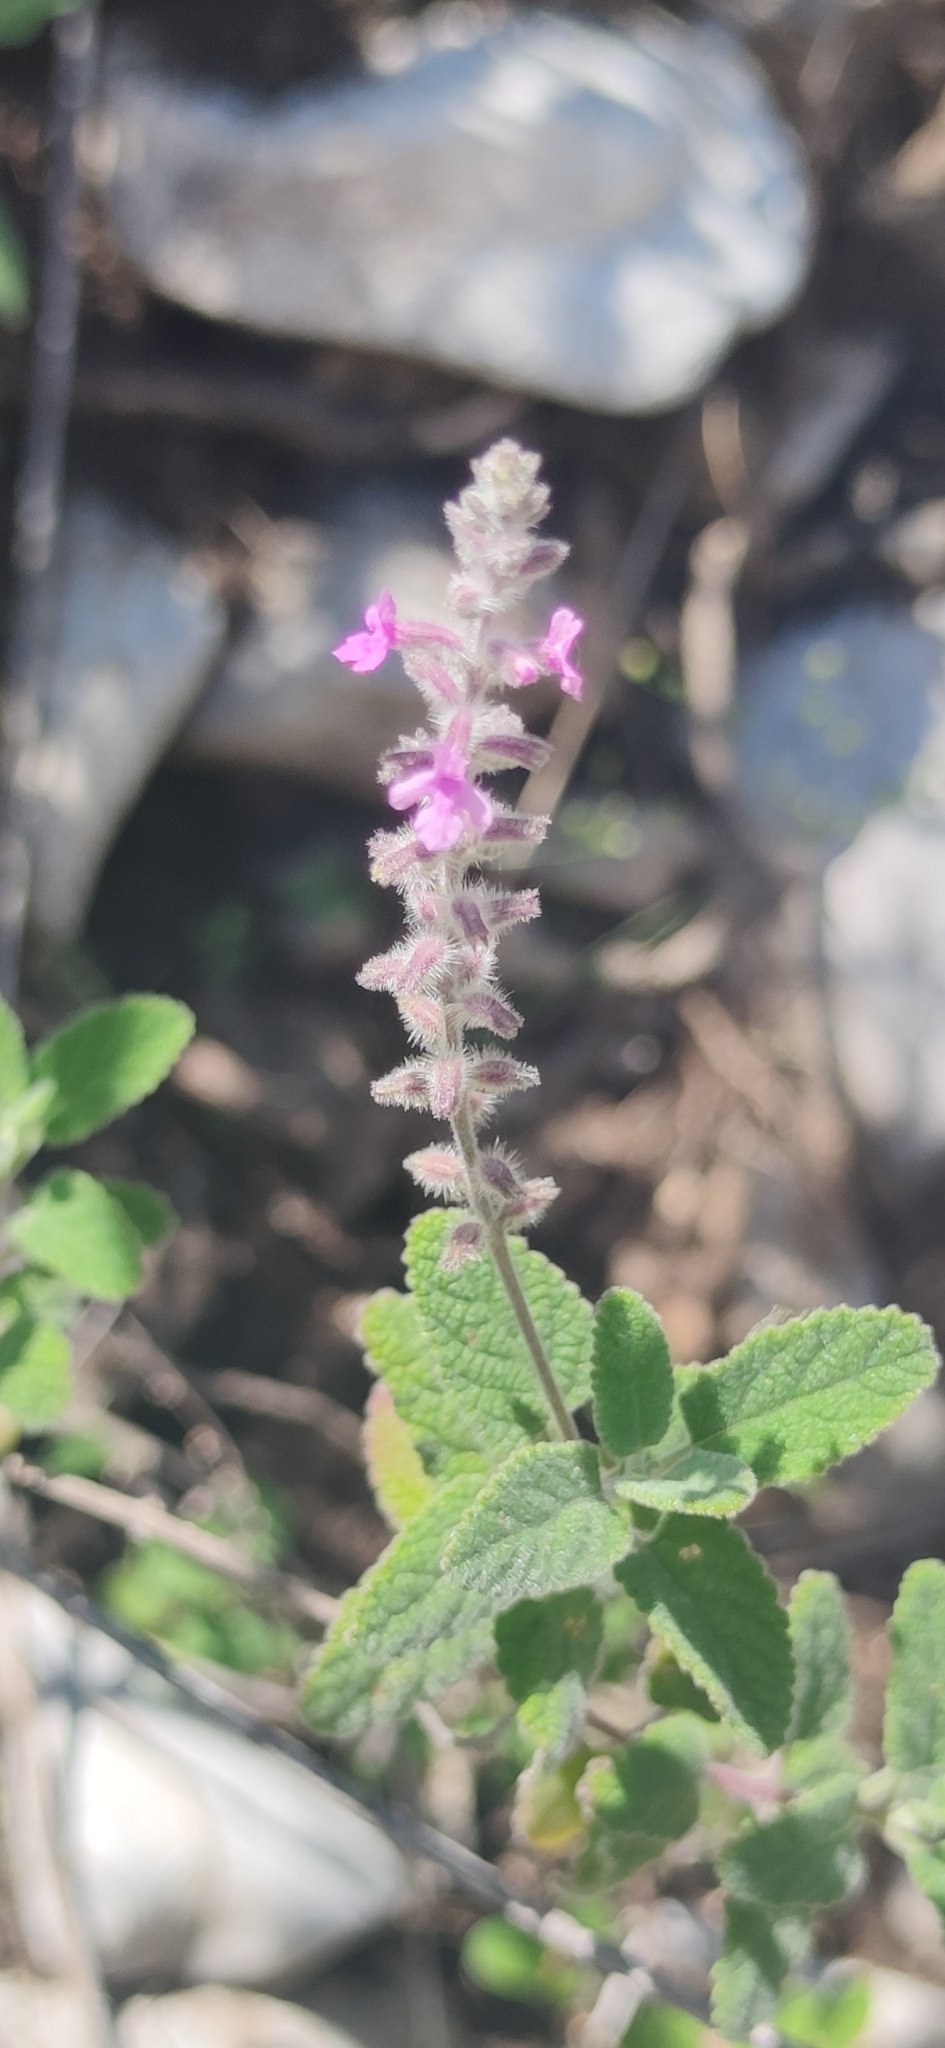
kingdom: Plantae
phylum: Tracheophyta
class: Magnoliopsida
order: Lamiales
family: Verbenaceae
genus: Aloysia
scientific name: Aloysia macrostachya
